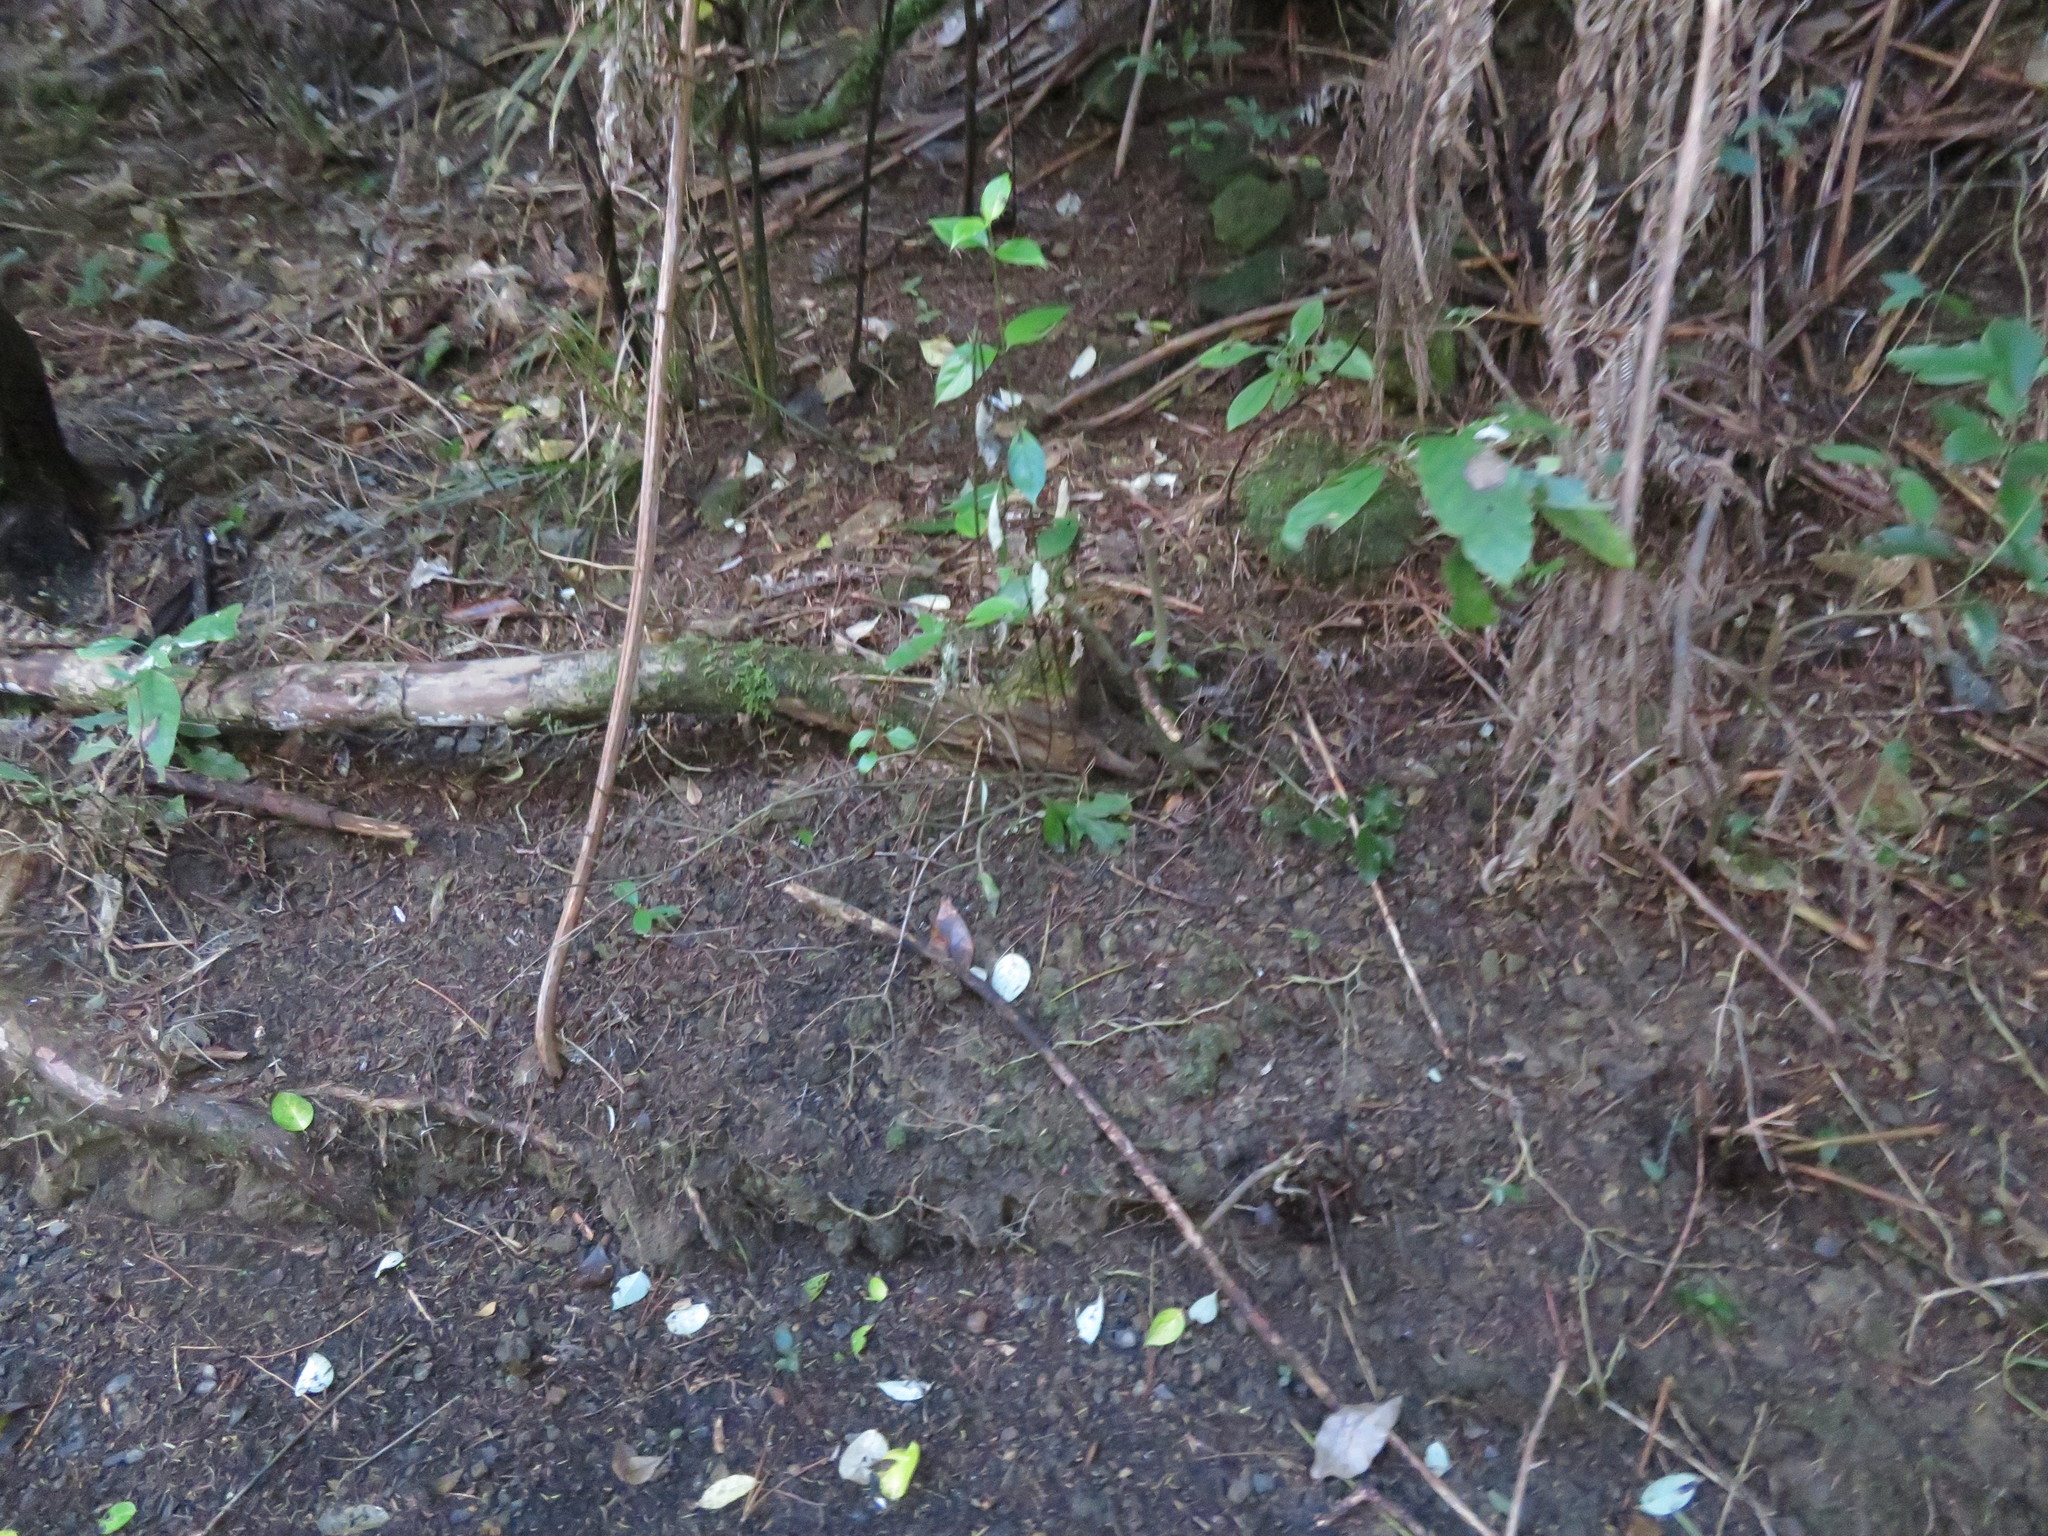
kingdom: Plantae
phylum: Tracheophyta
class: Magnoliopsida
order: Gentianales
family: Loganiaceae
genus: Geniostoma
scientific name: Geniostoma ligustrifolium
